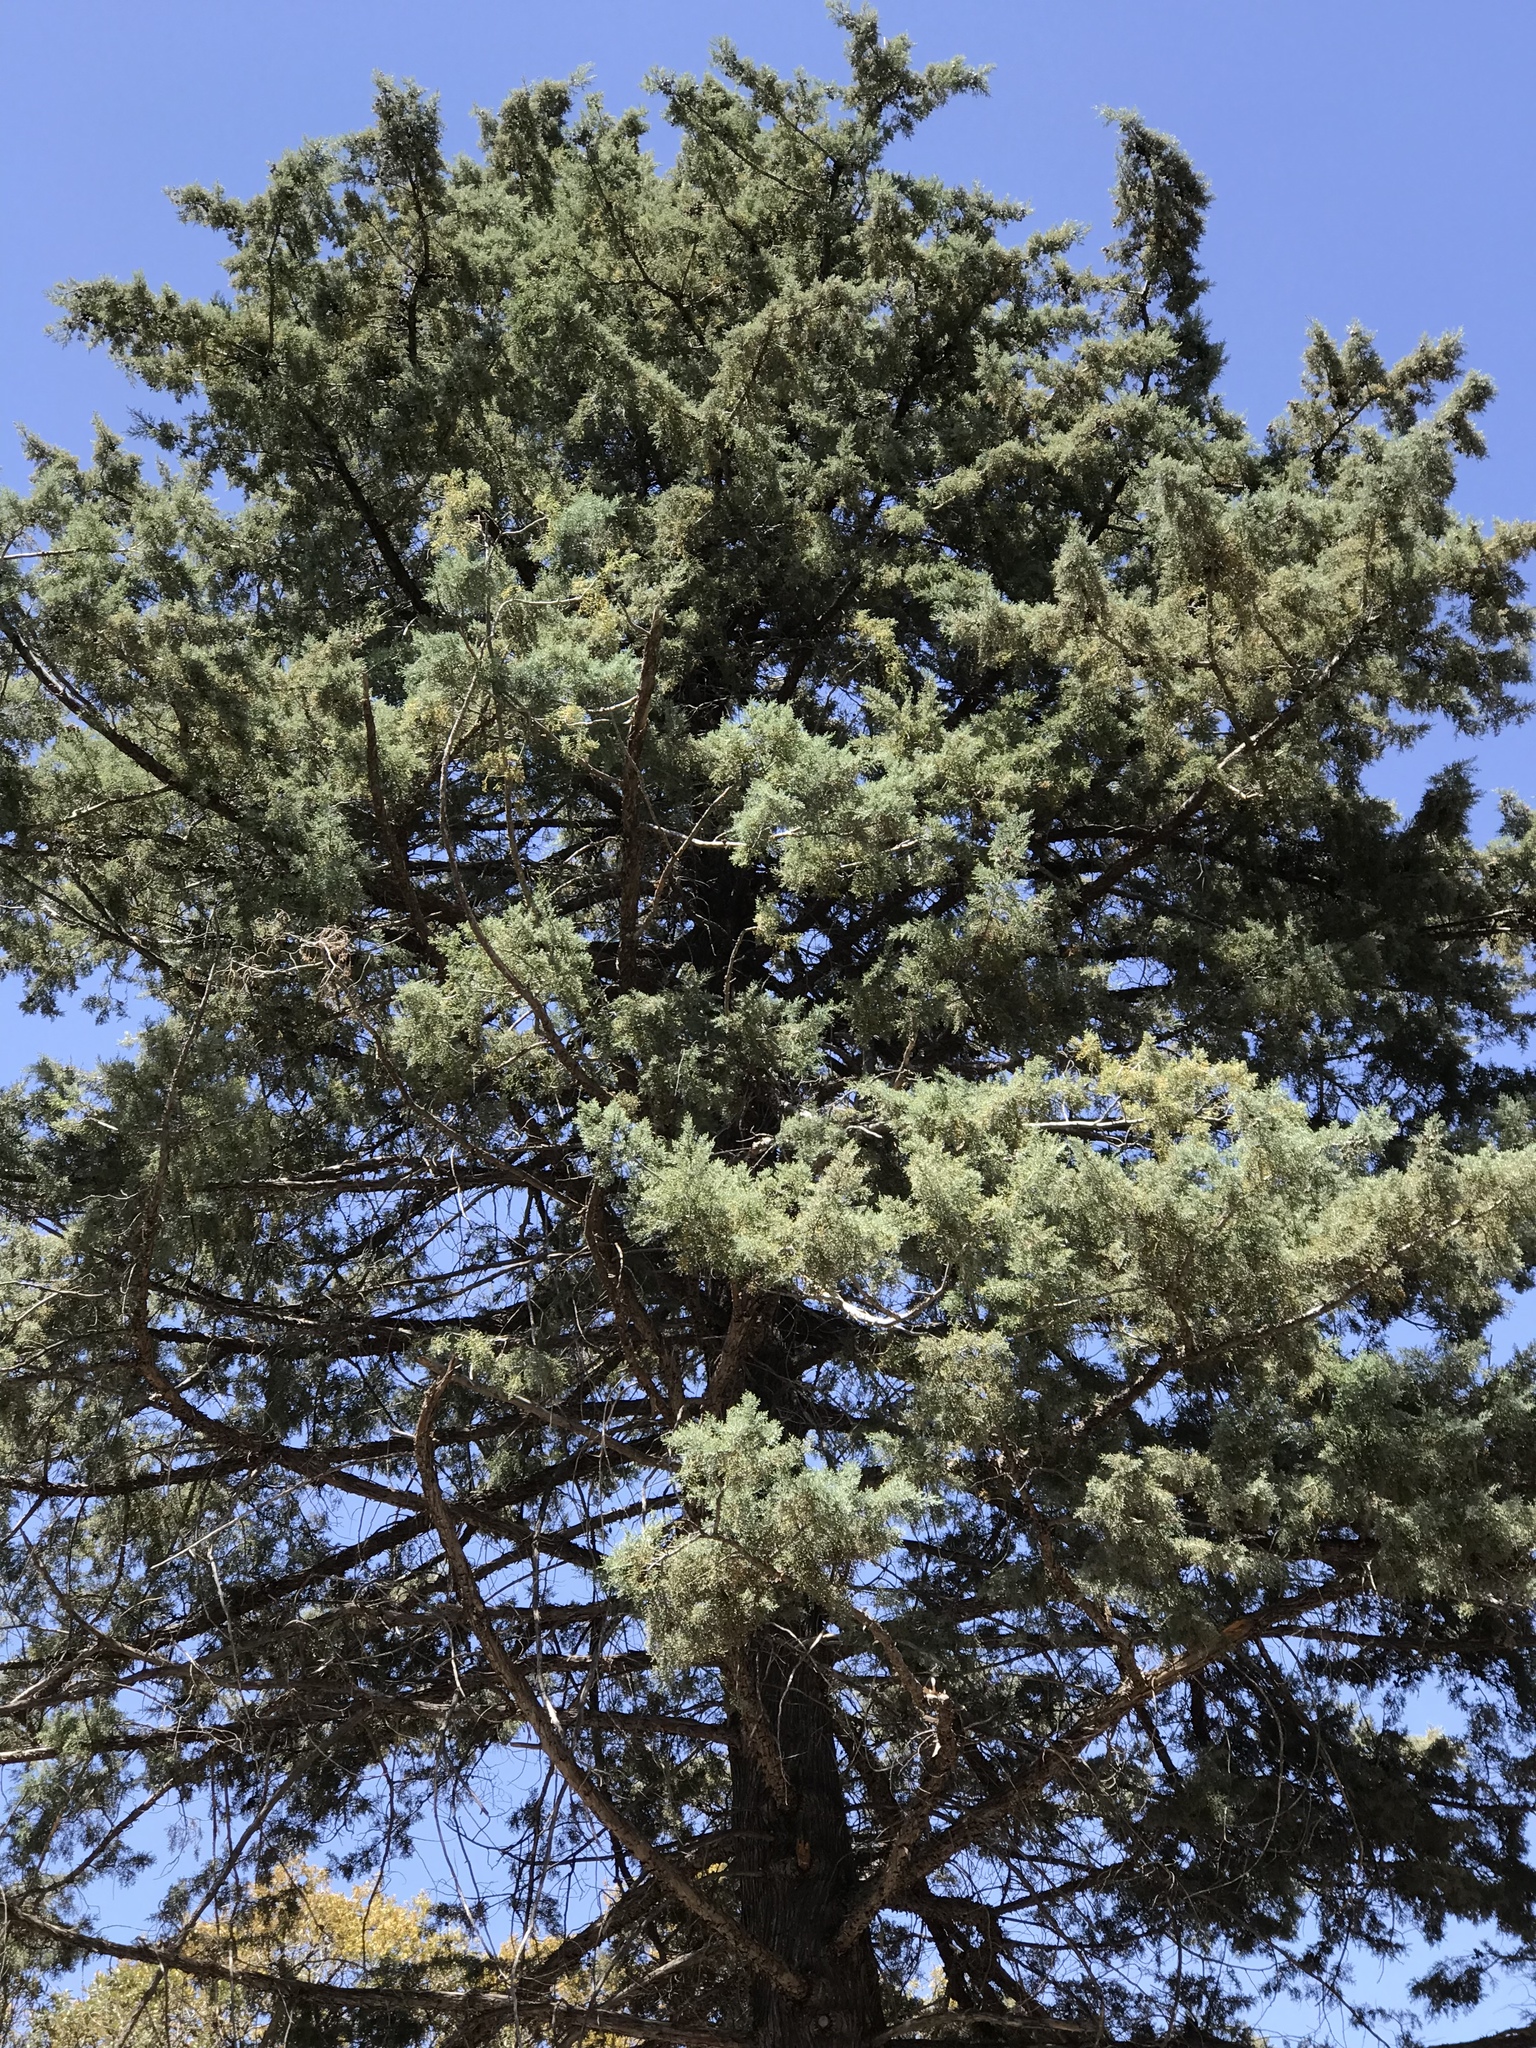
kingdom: Plantae
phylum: Tracheophyta
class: Pinopsida
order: Pinales
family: Cupressaceae
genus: Cupressus
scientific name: Cupressus arizonica
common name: Arizona cypress
